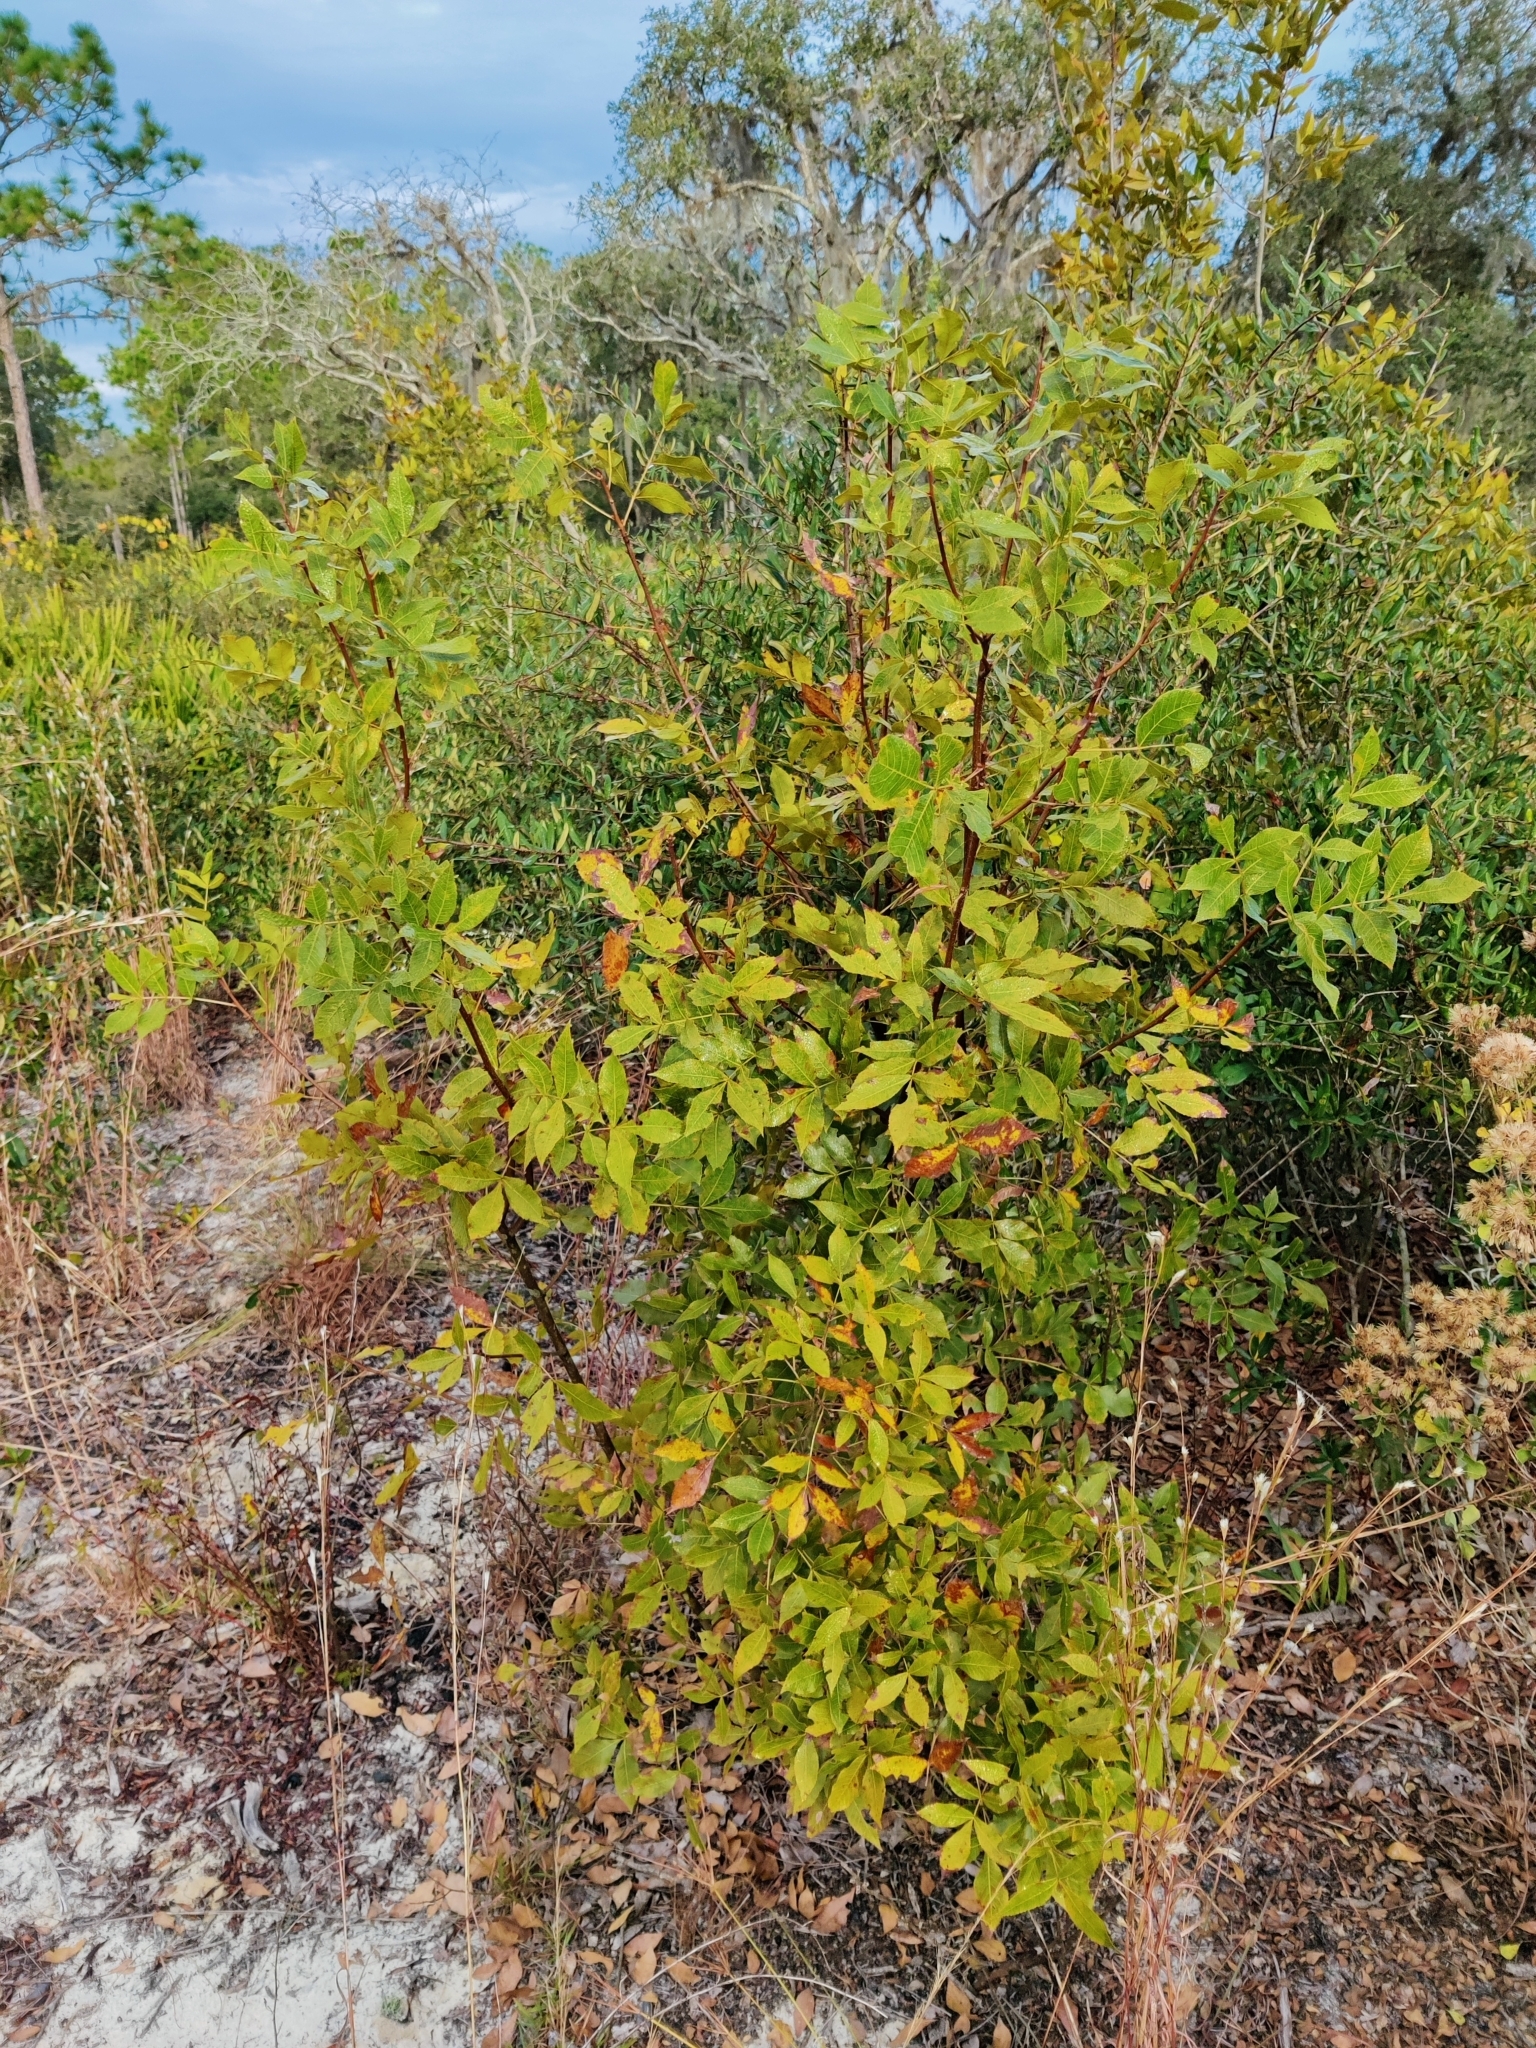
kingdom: Plantae
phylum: Tracheophyta
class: Magnoliopsida
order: Fagales
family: Juglandaceae
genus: Carya
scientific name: Carya floridana
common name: Scrub hickory
